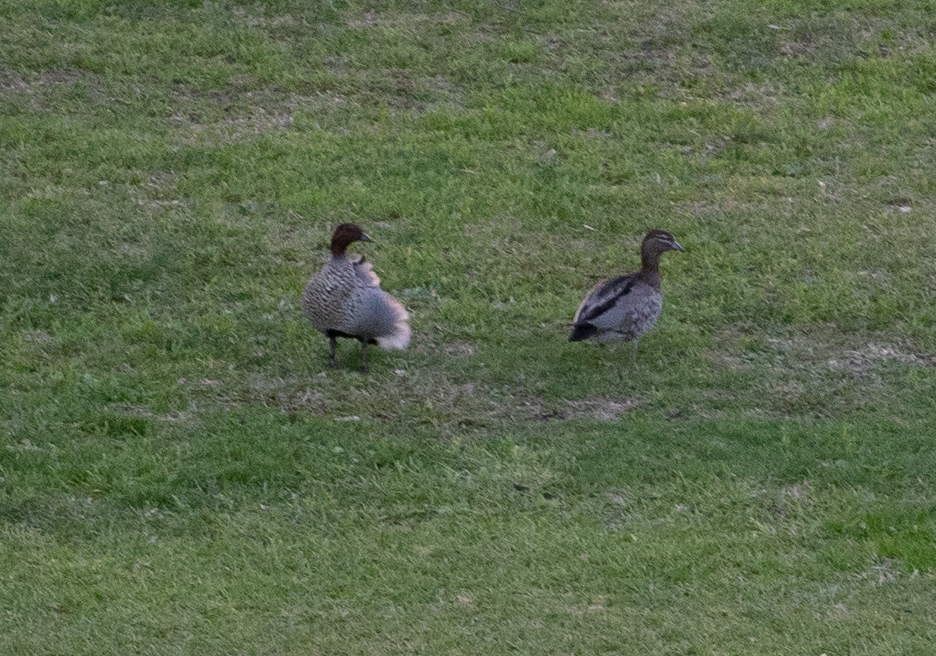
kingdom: Animalia
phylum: Chordata
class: Aves
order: Anseriformes
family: Anatidae
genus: Chenonetta
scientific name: Chenonetta jubata
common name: Maned duck
